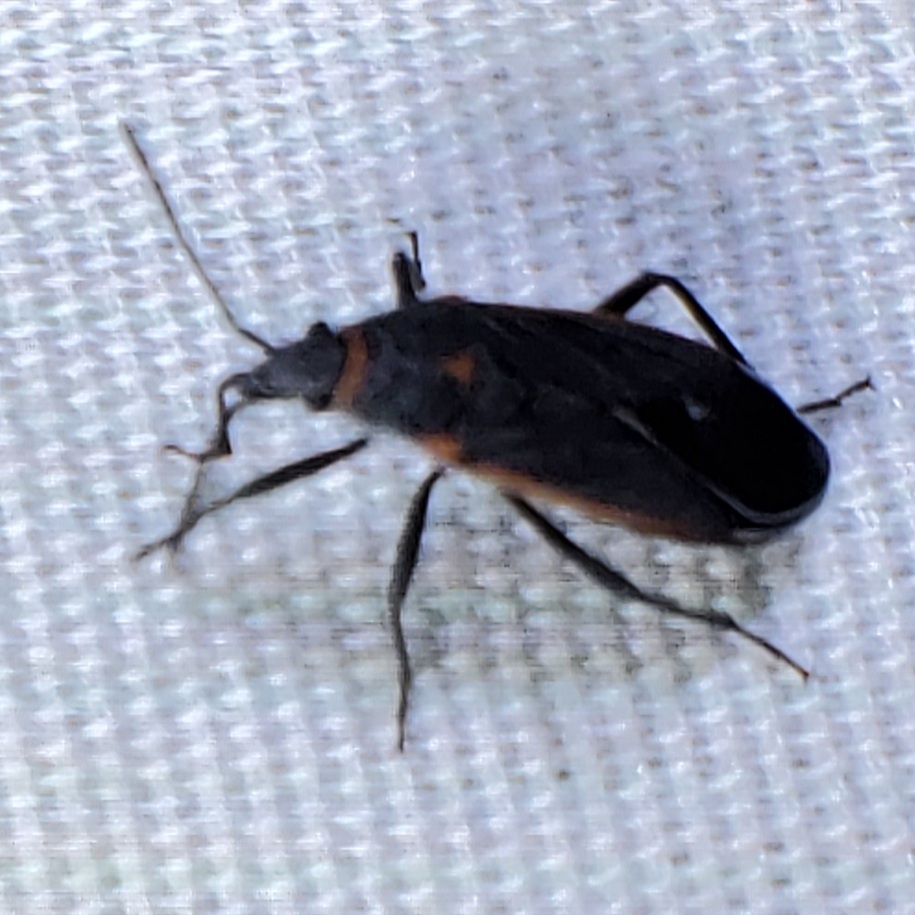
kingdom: Animalia
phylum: Arthropoda
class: Insecta
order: Hemiptera
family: Lygaeidae
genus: Melacoryphus
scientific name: Melacoryphus lateralis
